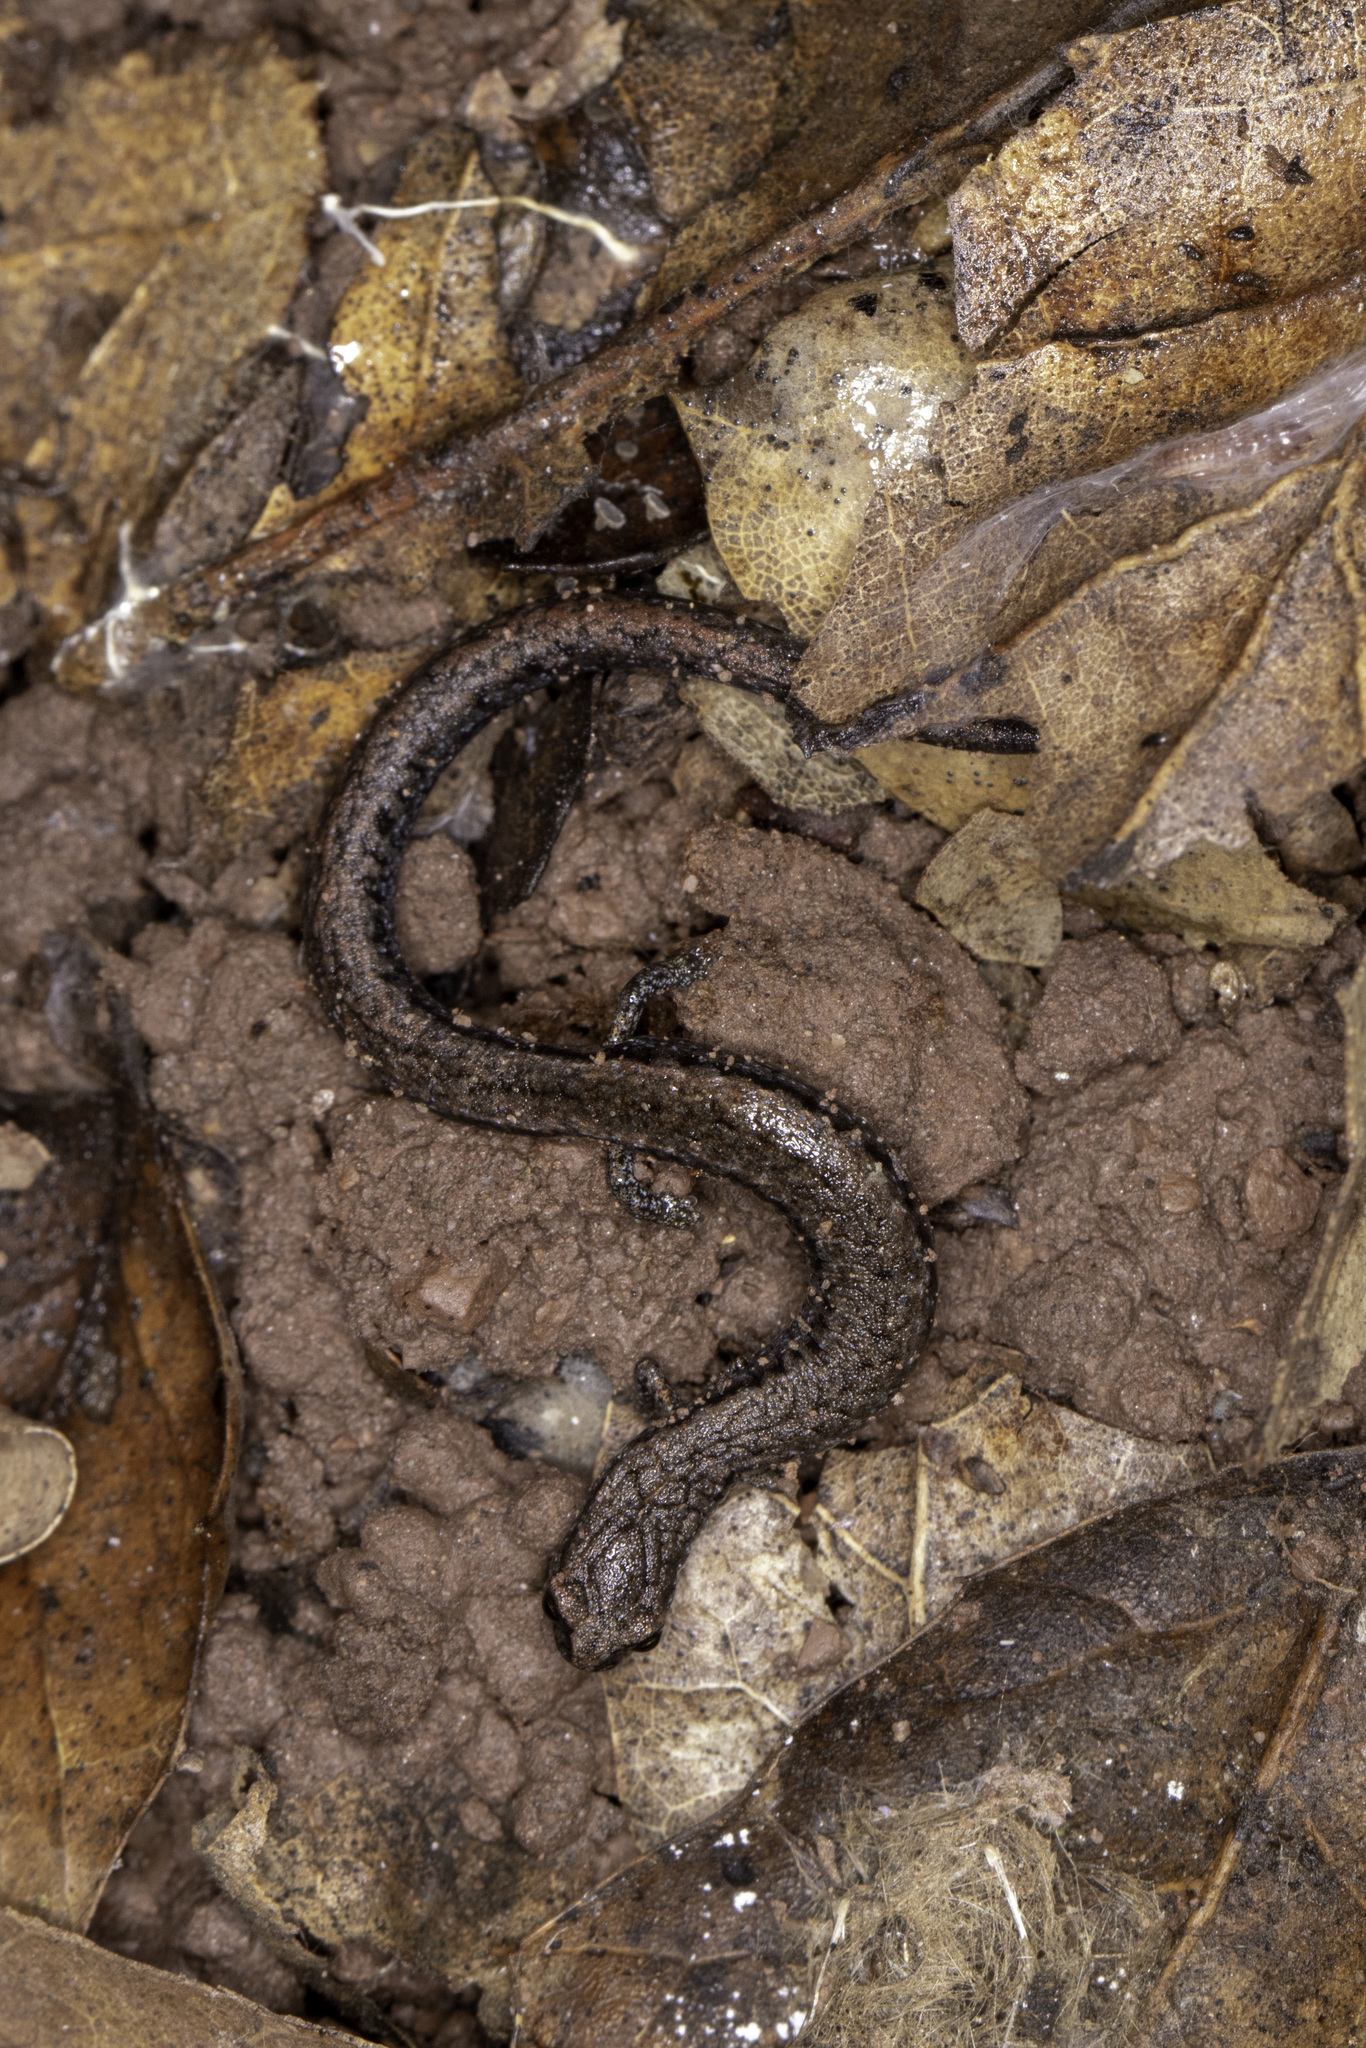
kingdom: Animalia
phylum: Chordata
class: Amphibia
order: Caudata
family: Plethodontidae
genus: Batrachoseps
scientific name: Batrachoseps nigriventris
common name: Black-bellied slender salamander
